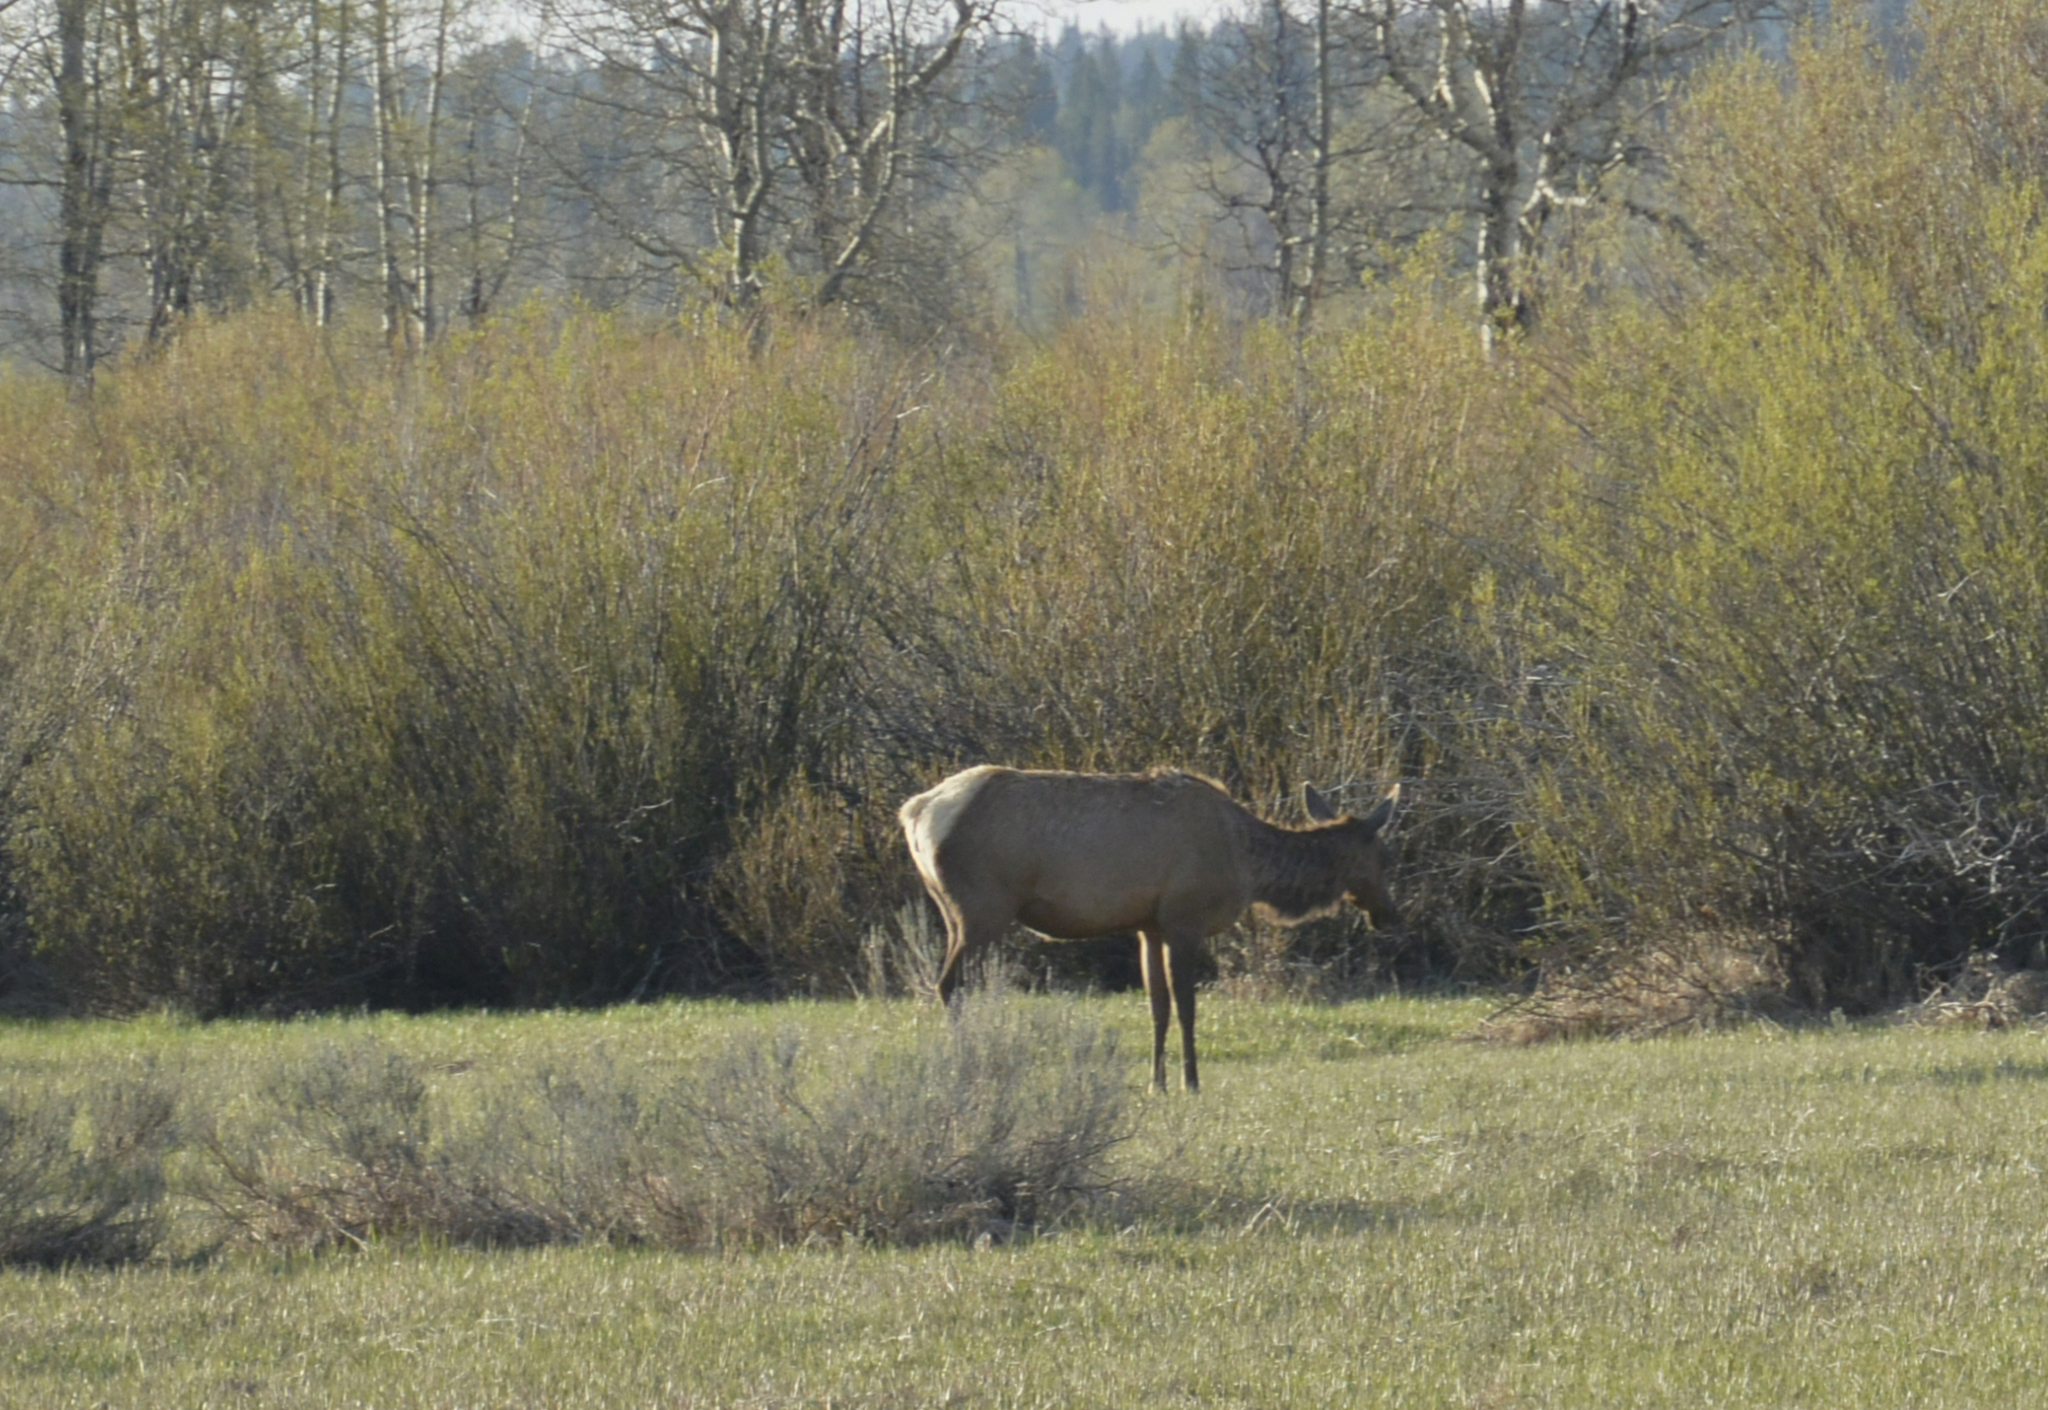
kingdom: Animalia
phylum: Chordata
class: Mammalia
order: Artiodactyla
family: Cervidae
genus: Cervus
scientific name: Cervus elaphus
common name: Red deer
